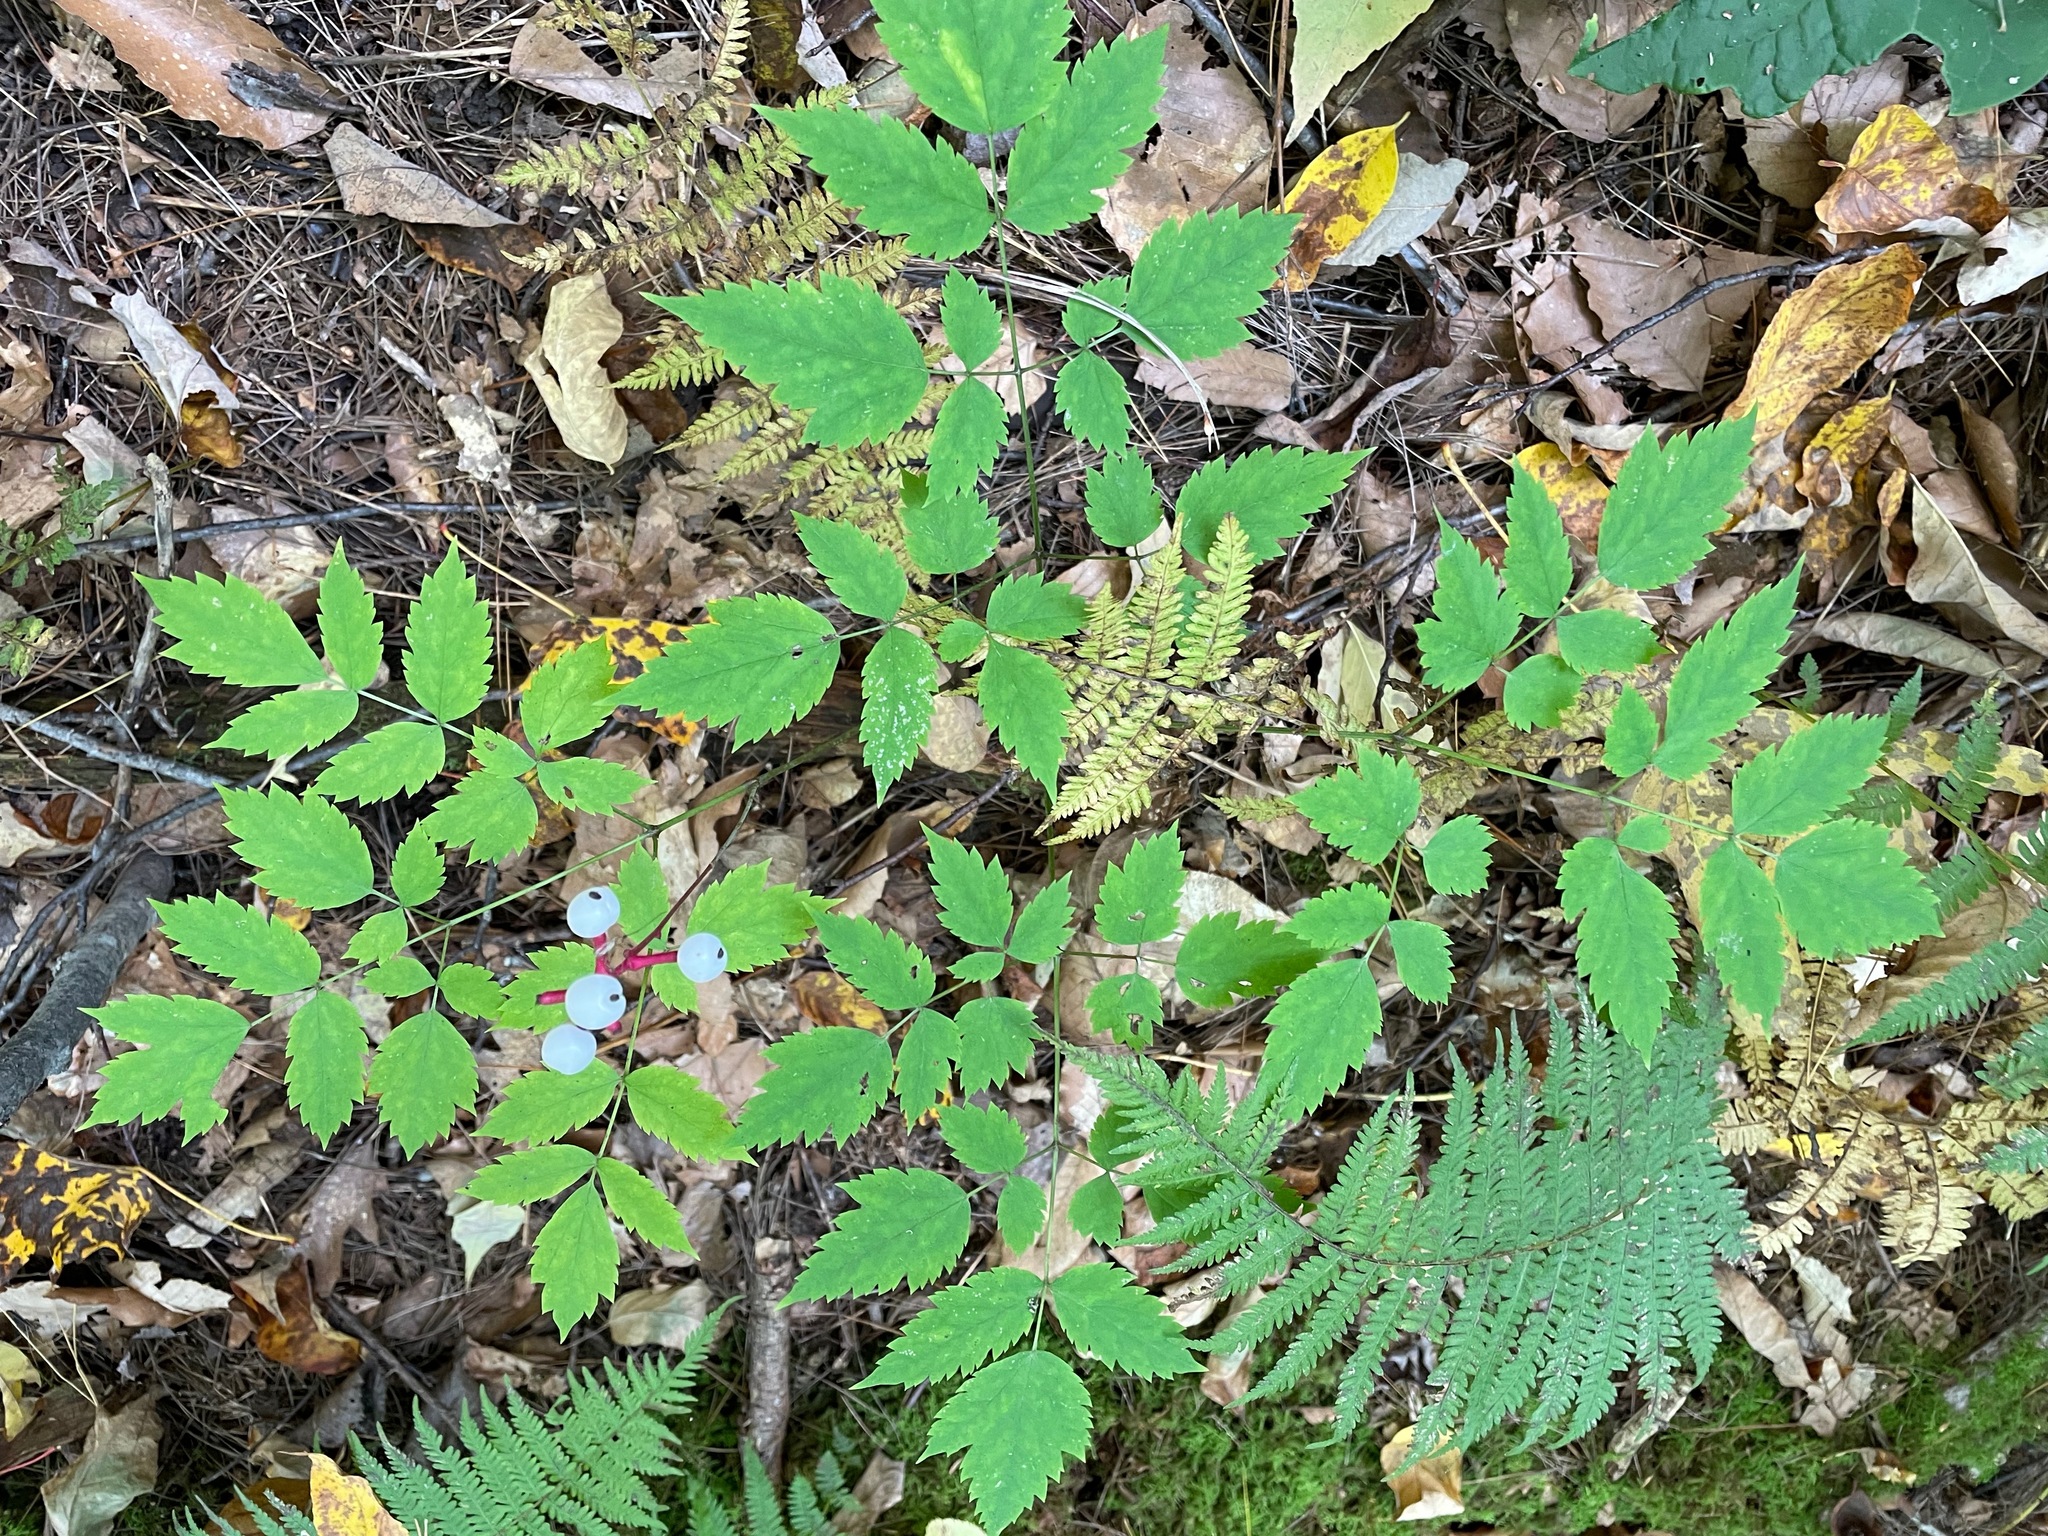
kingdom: Plantae
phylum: Tracheophyta
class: Magnoliopsida
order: Ranunculales
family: Ranunculaceae
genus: Actaea
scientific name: Actaea pachypoda
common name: Doll's-eyes
